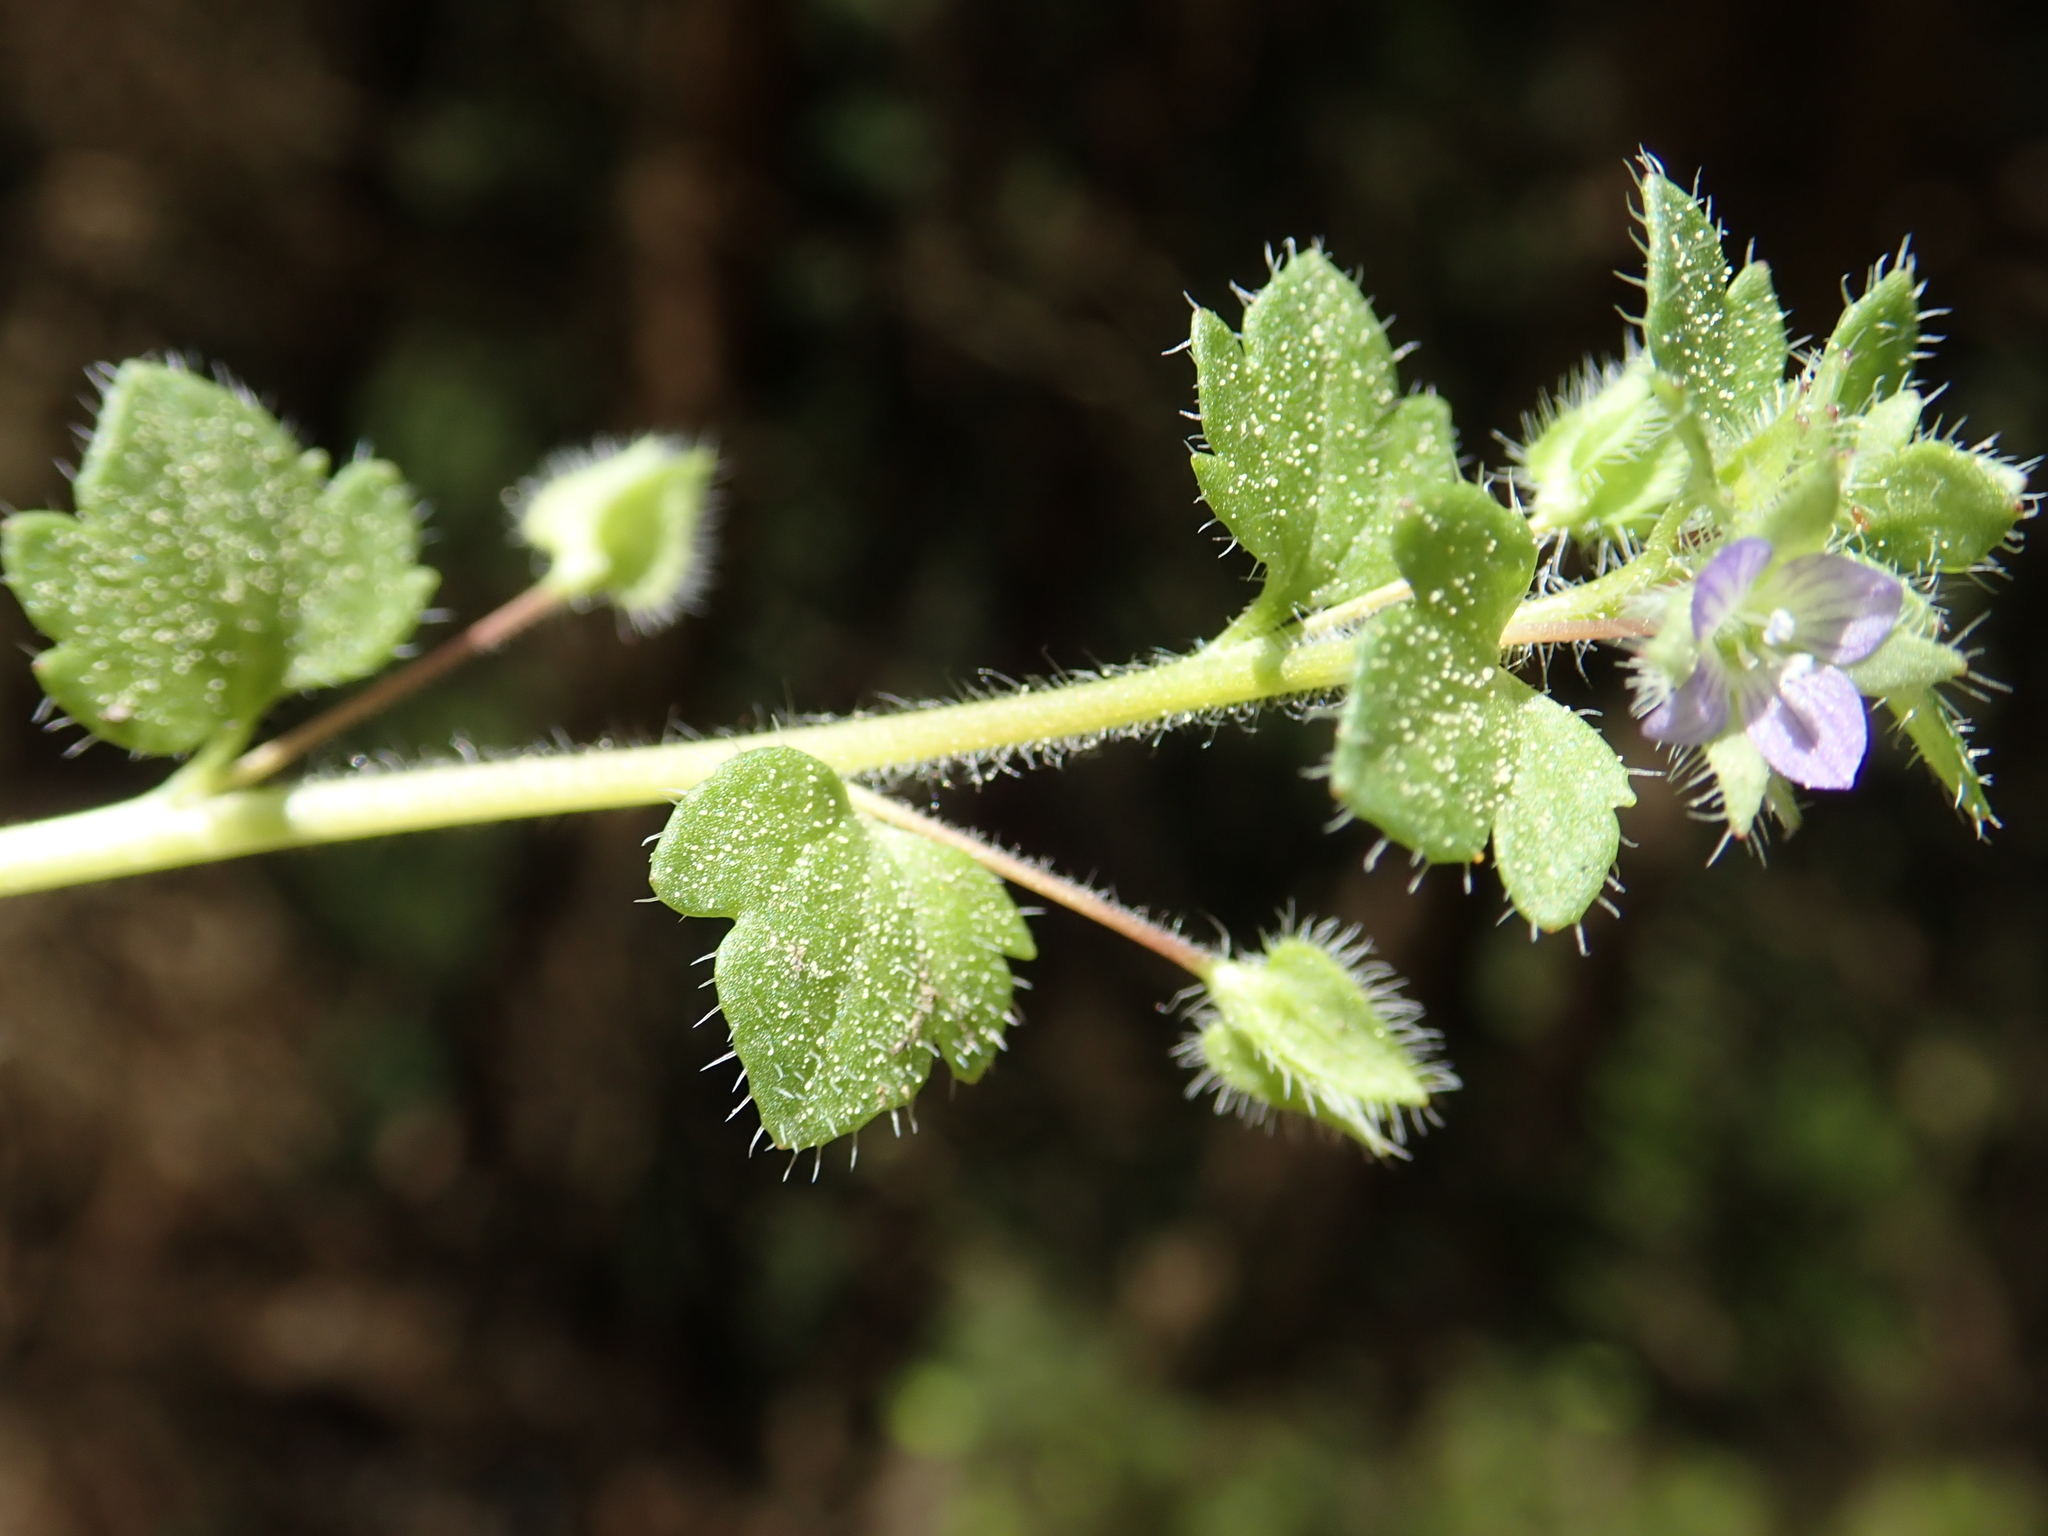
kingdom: Plantae
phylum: Tracheophyta
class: Magnoliopsida
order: Lamiales
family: Plantaginaceae
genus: Veronica
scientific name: Veronica hederifolia
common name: Ivy-leaved speedwell
